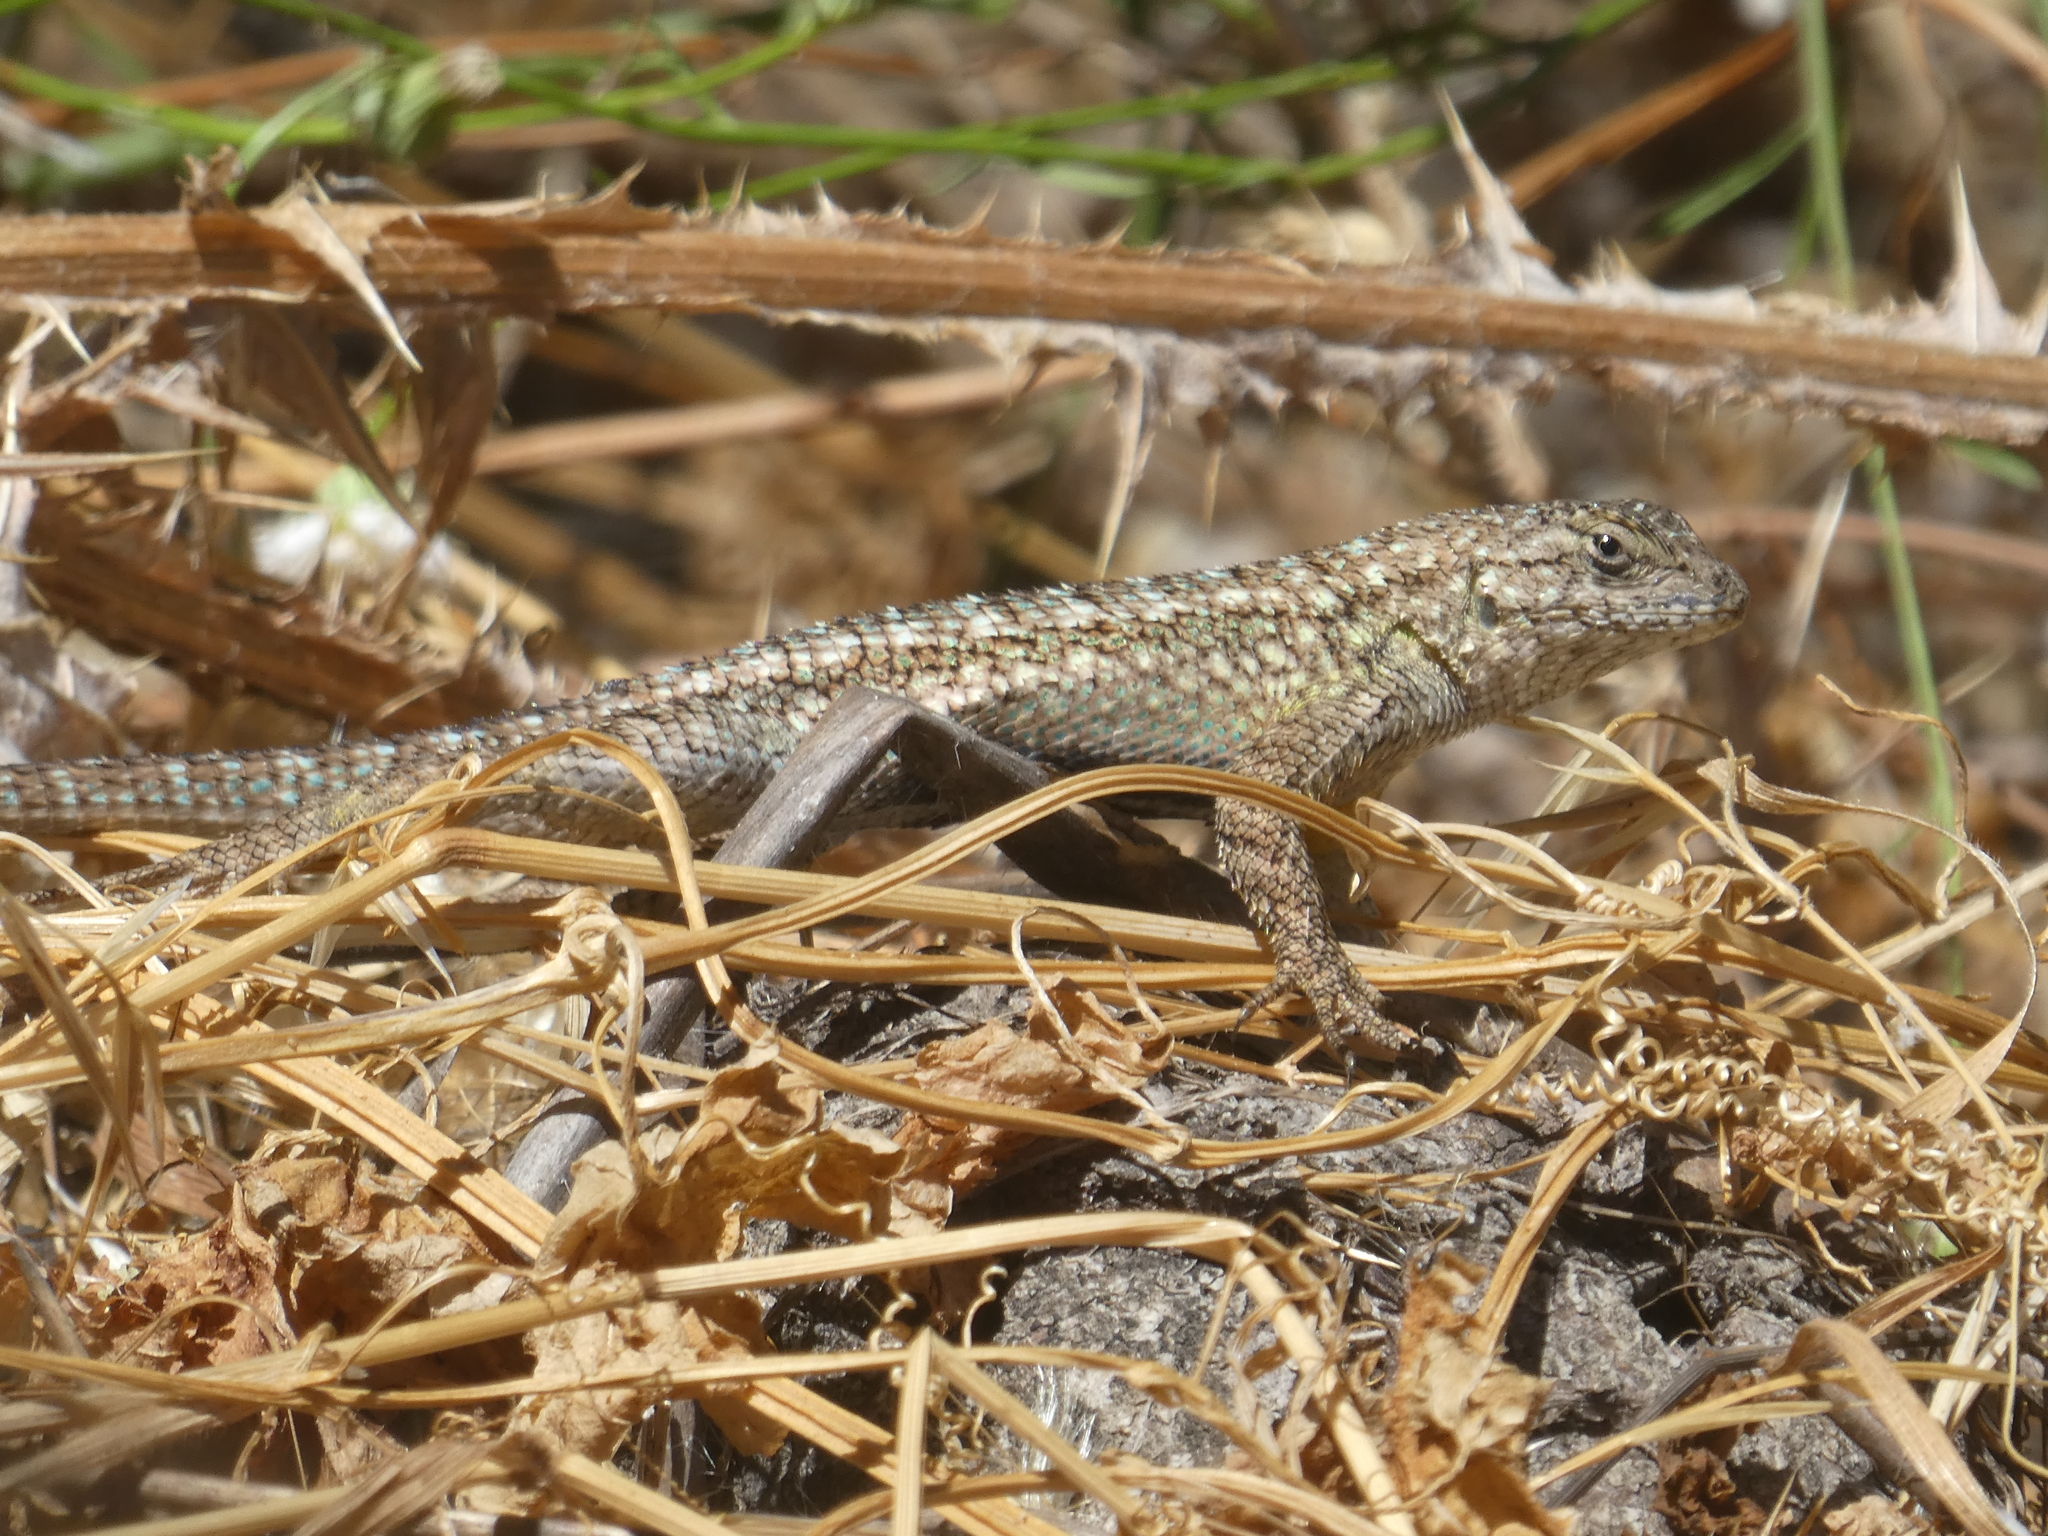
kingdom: Animalia
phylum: Chordata
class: Squamata
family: Phrynosomatidae
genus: Sceloporus
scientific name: Sceloporus occidentalis
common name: Western fence lizard
